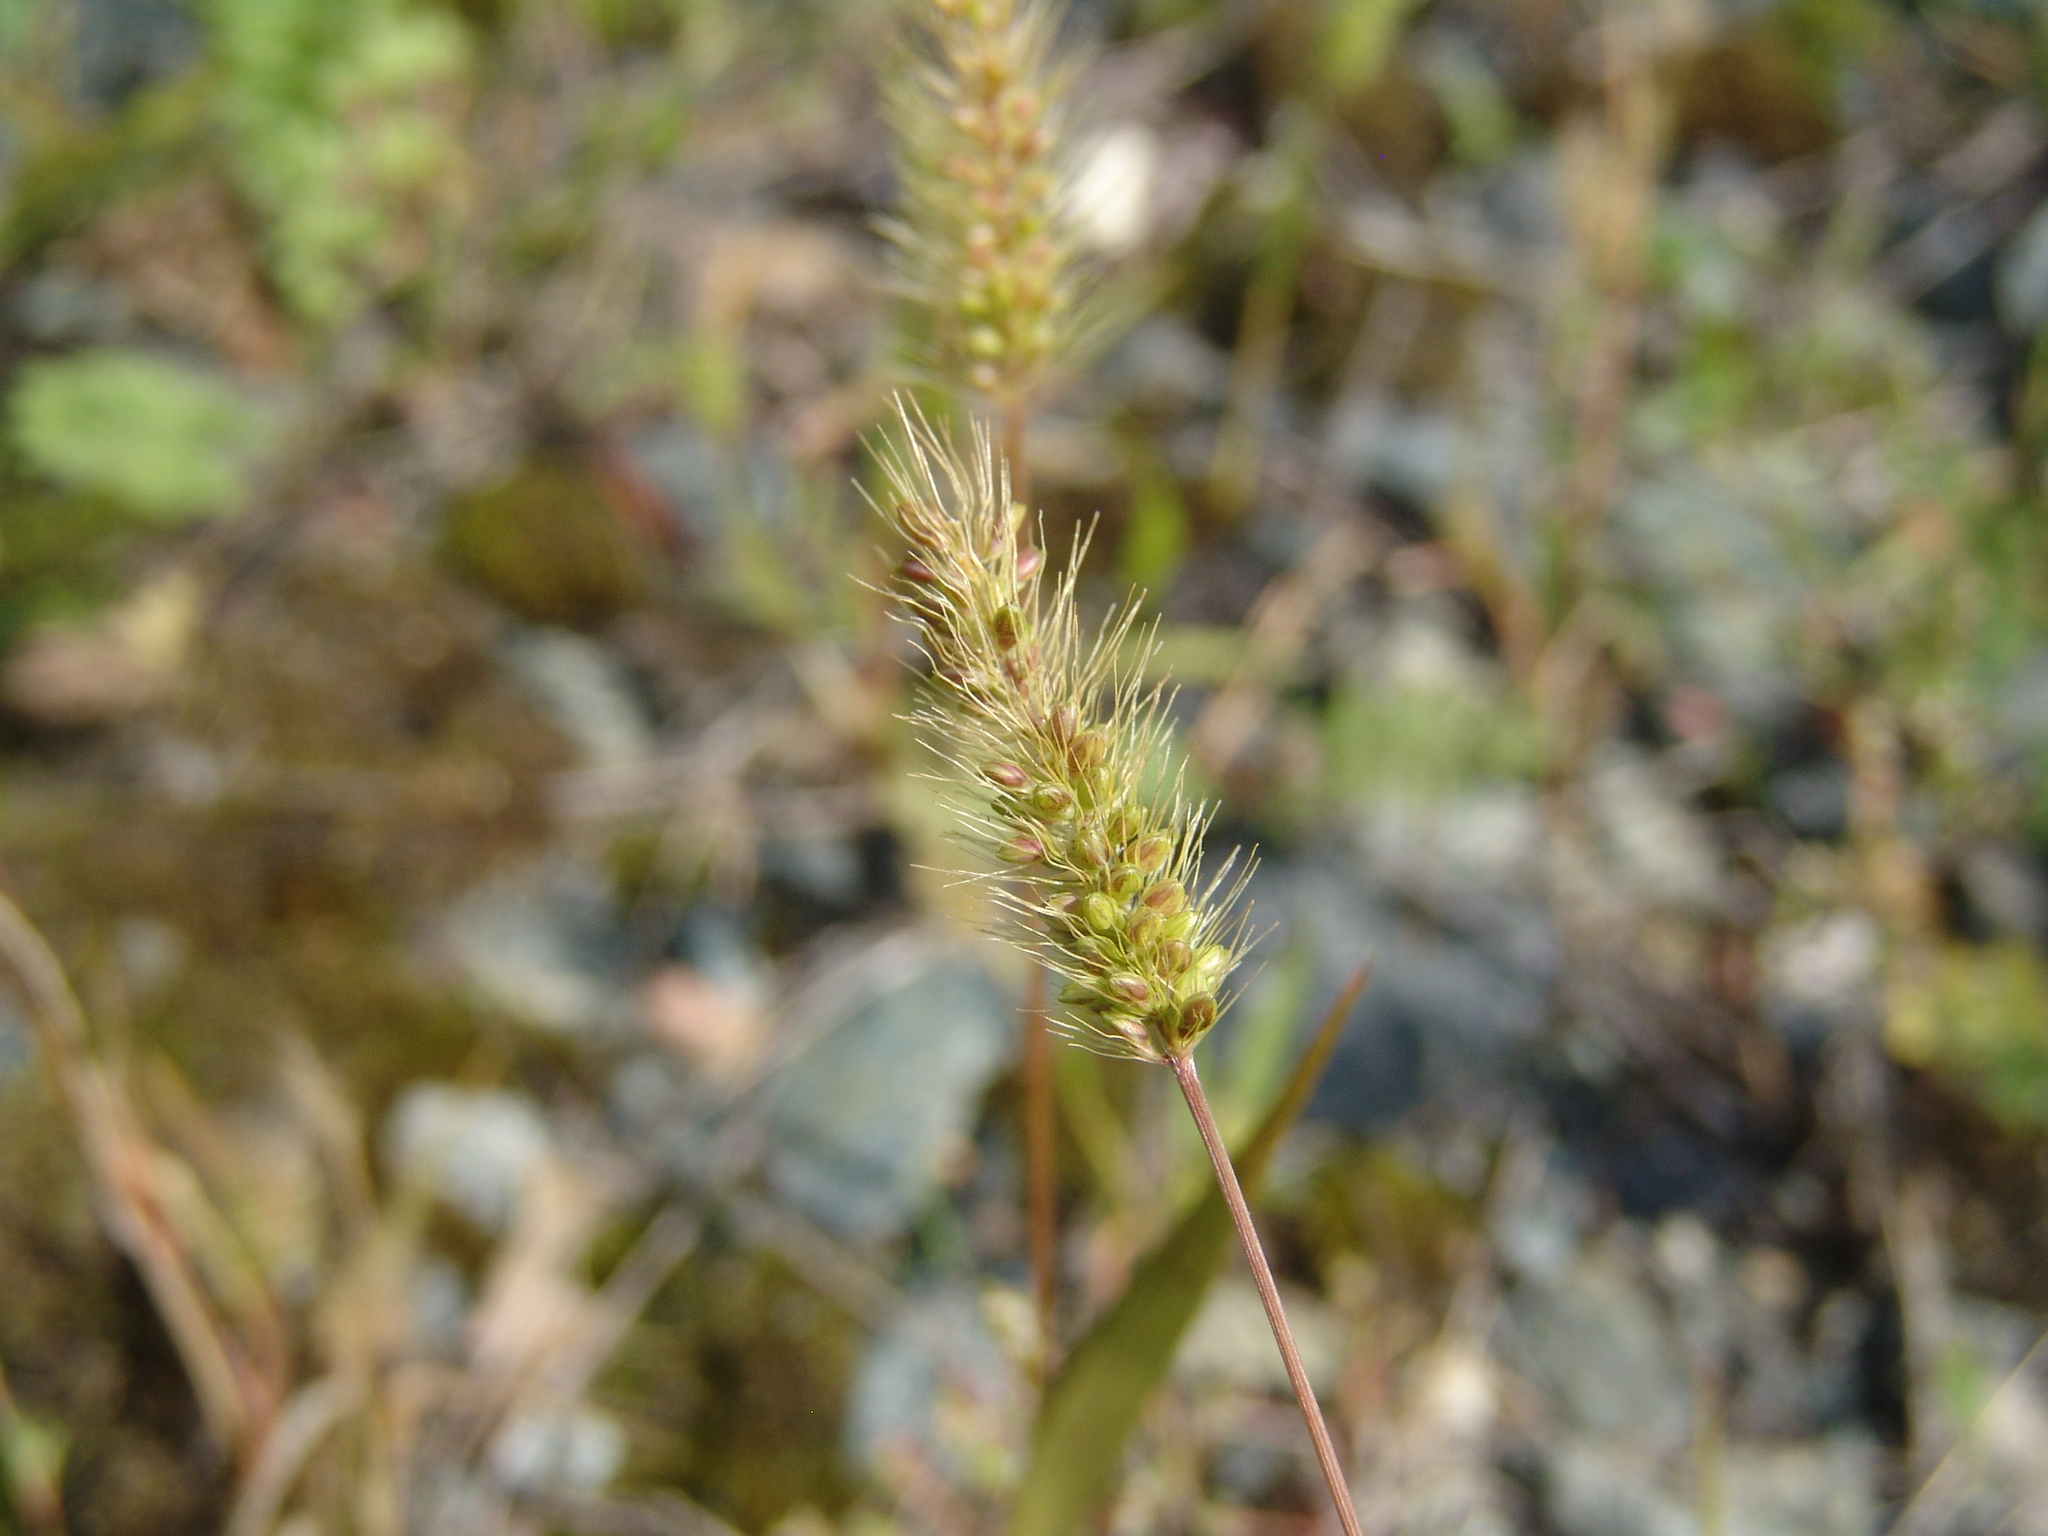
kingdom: Plantae
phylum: Tracheophyta
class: Liliopsida
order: Poales
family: Poaceae
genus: Setaria
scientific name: Setaria viridis
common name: Green bristlegrass
